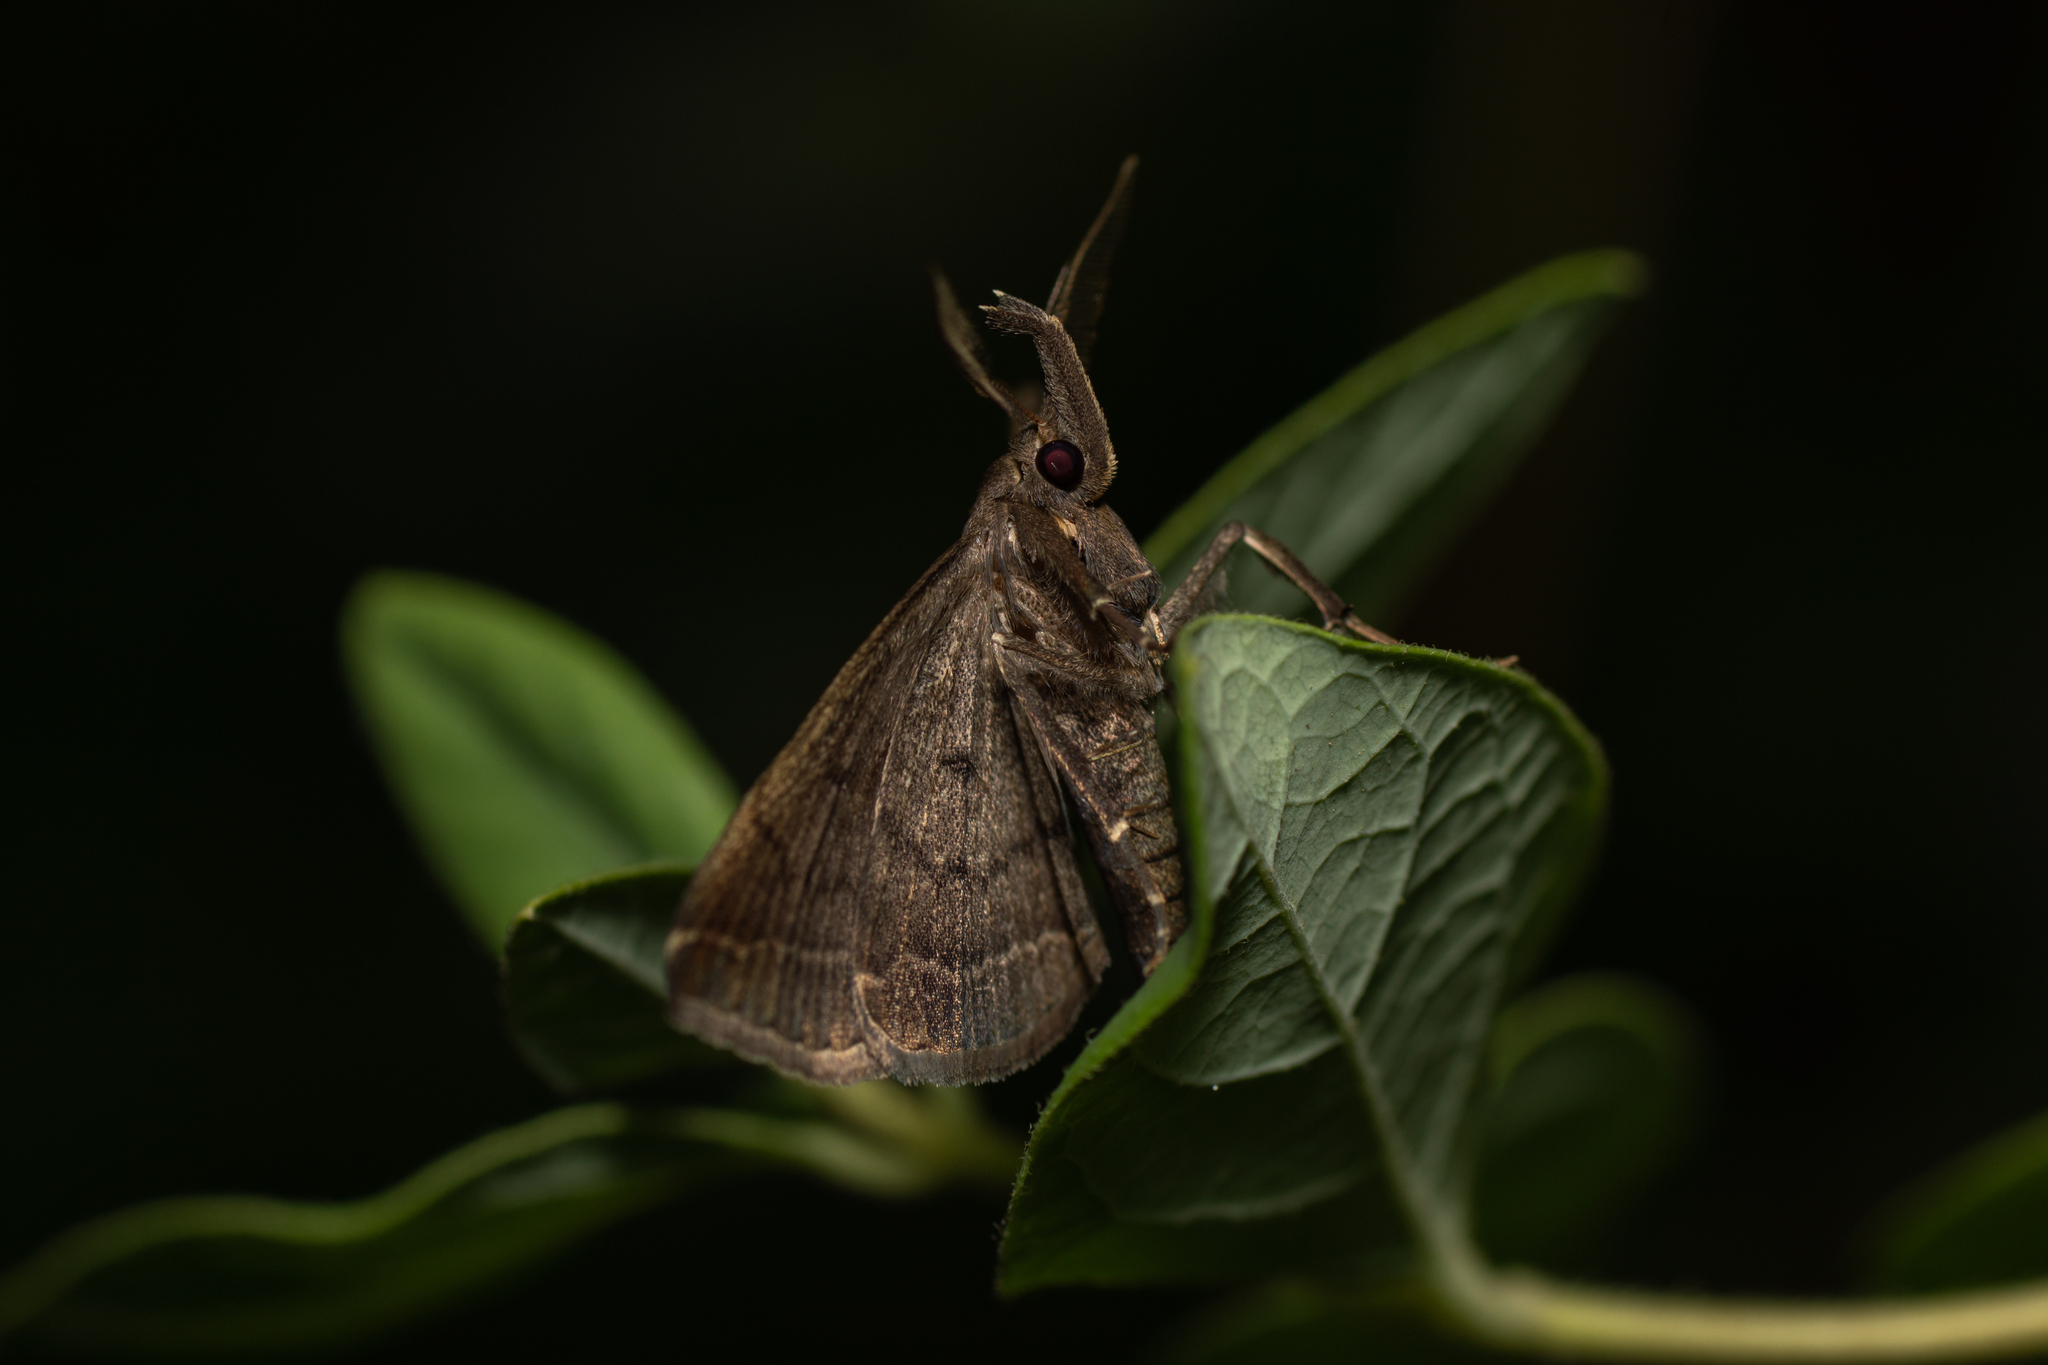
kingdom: Animalia
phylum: Arthropoda
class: Insecta
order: Lepidoptera
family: Erebidae
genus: Pechipogo
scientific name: Pechipogo plumigeralis
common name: Plumed fan-foot
